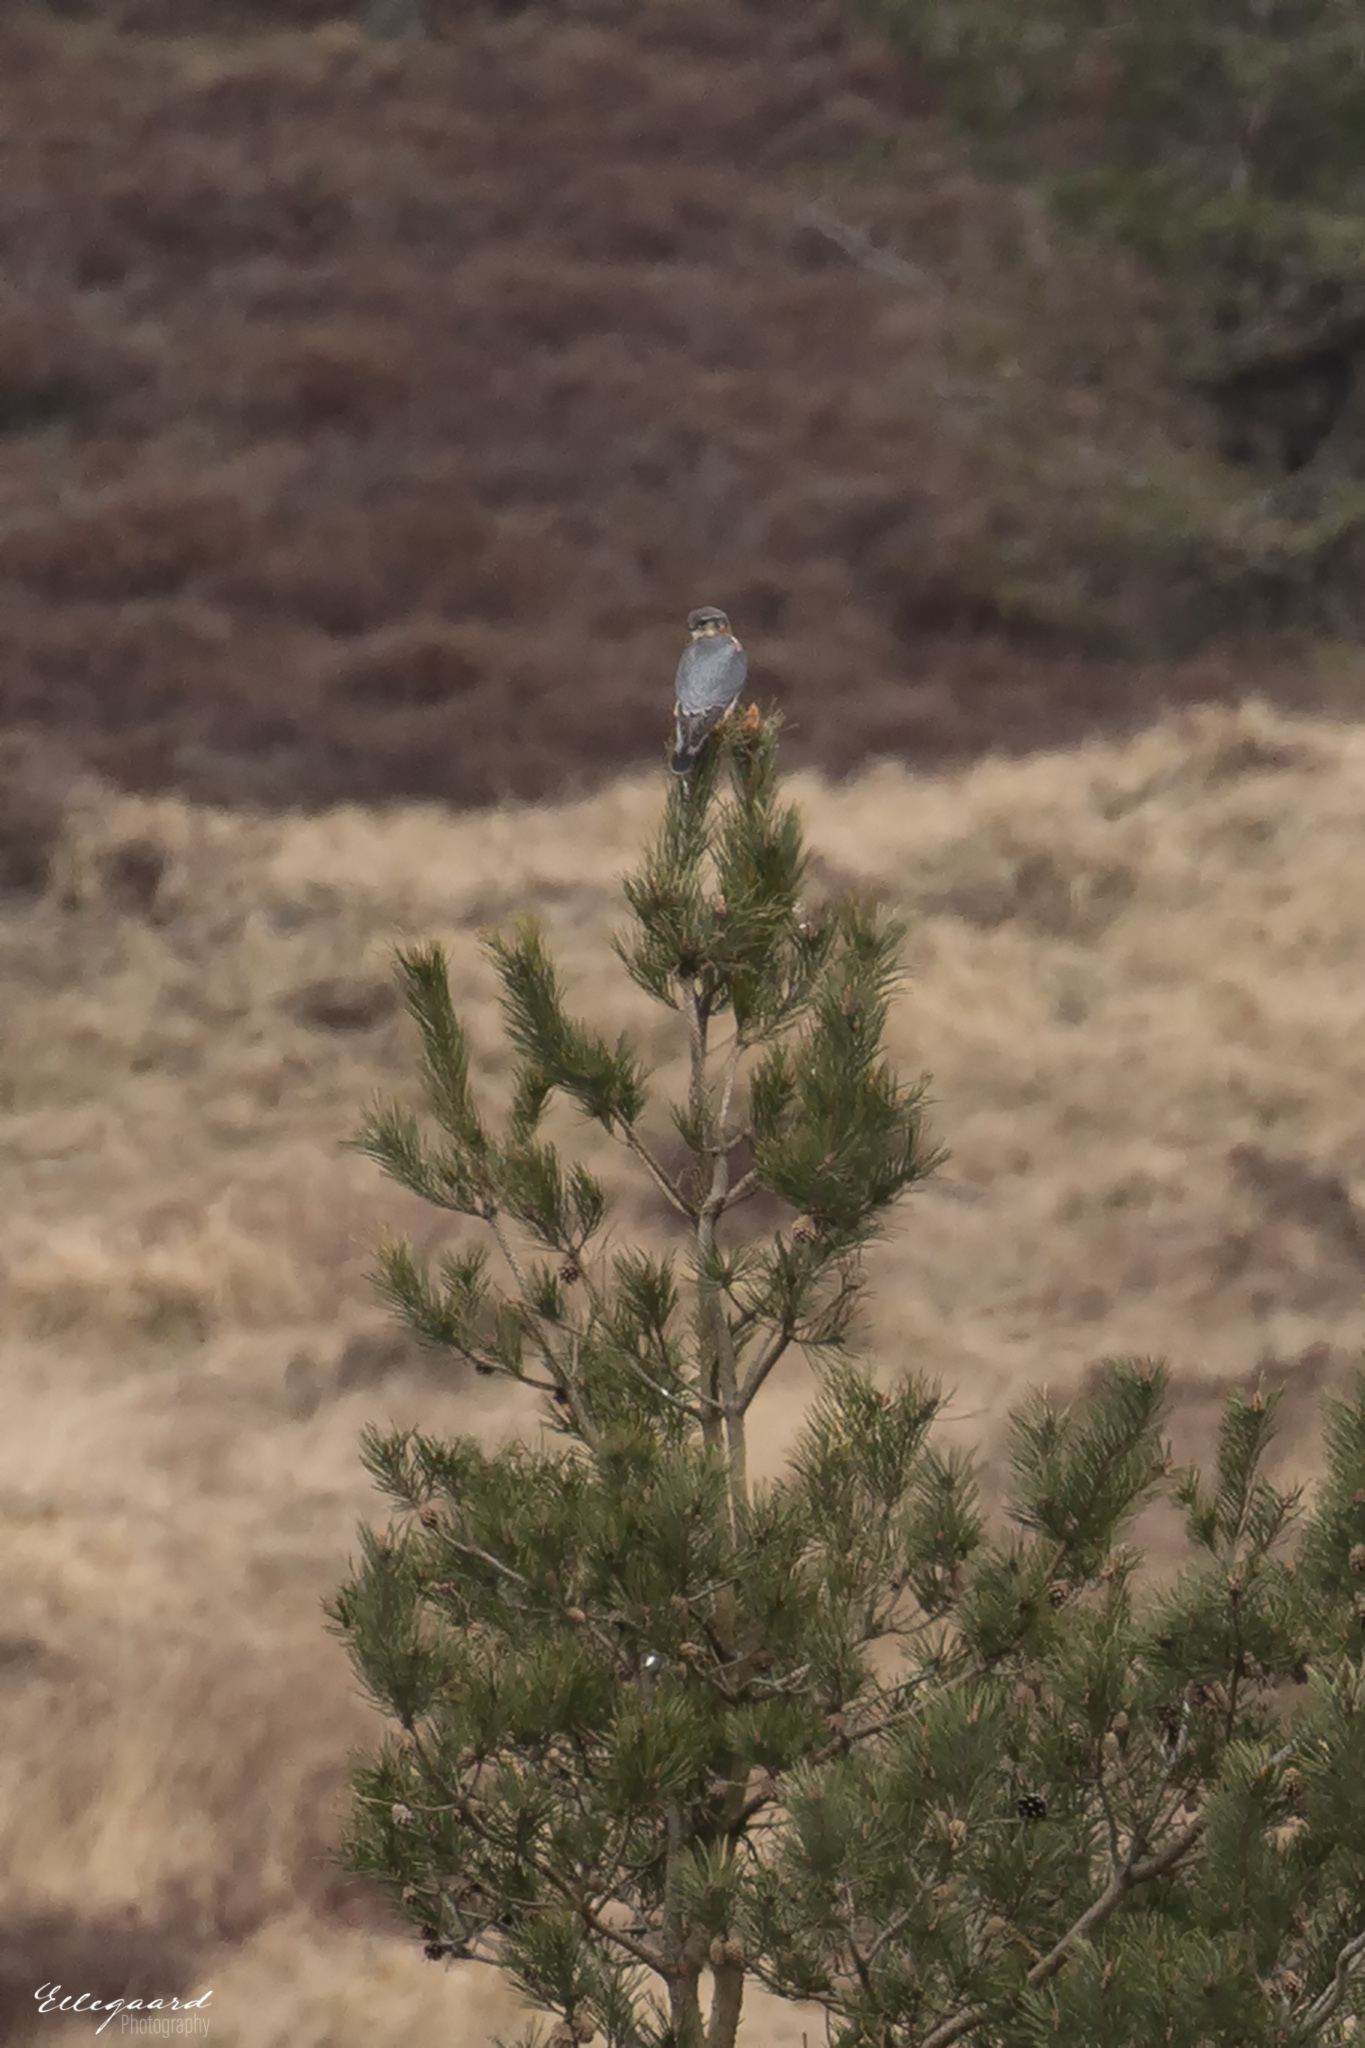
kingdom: Animalia
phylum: Chordata
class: Aves
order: Falconiformes
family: Falconidae
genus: Falco
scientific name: Falco columbarius
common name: Merlin
